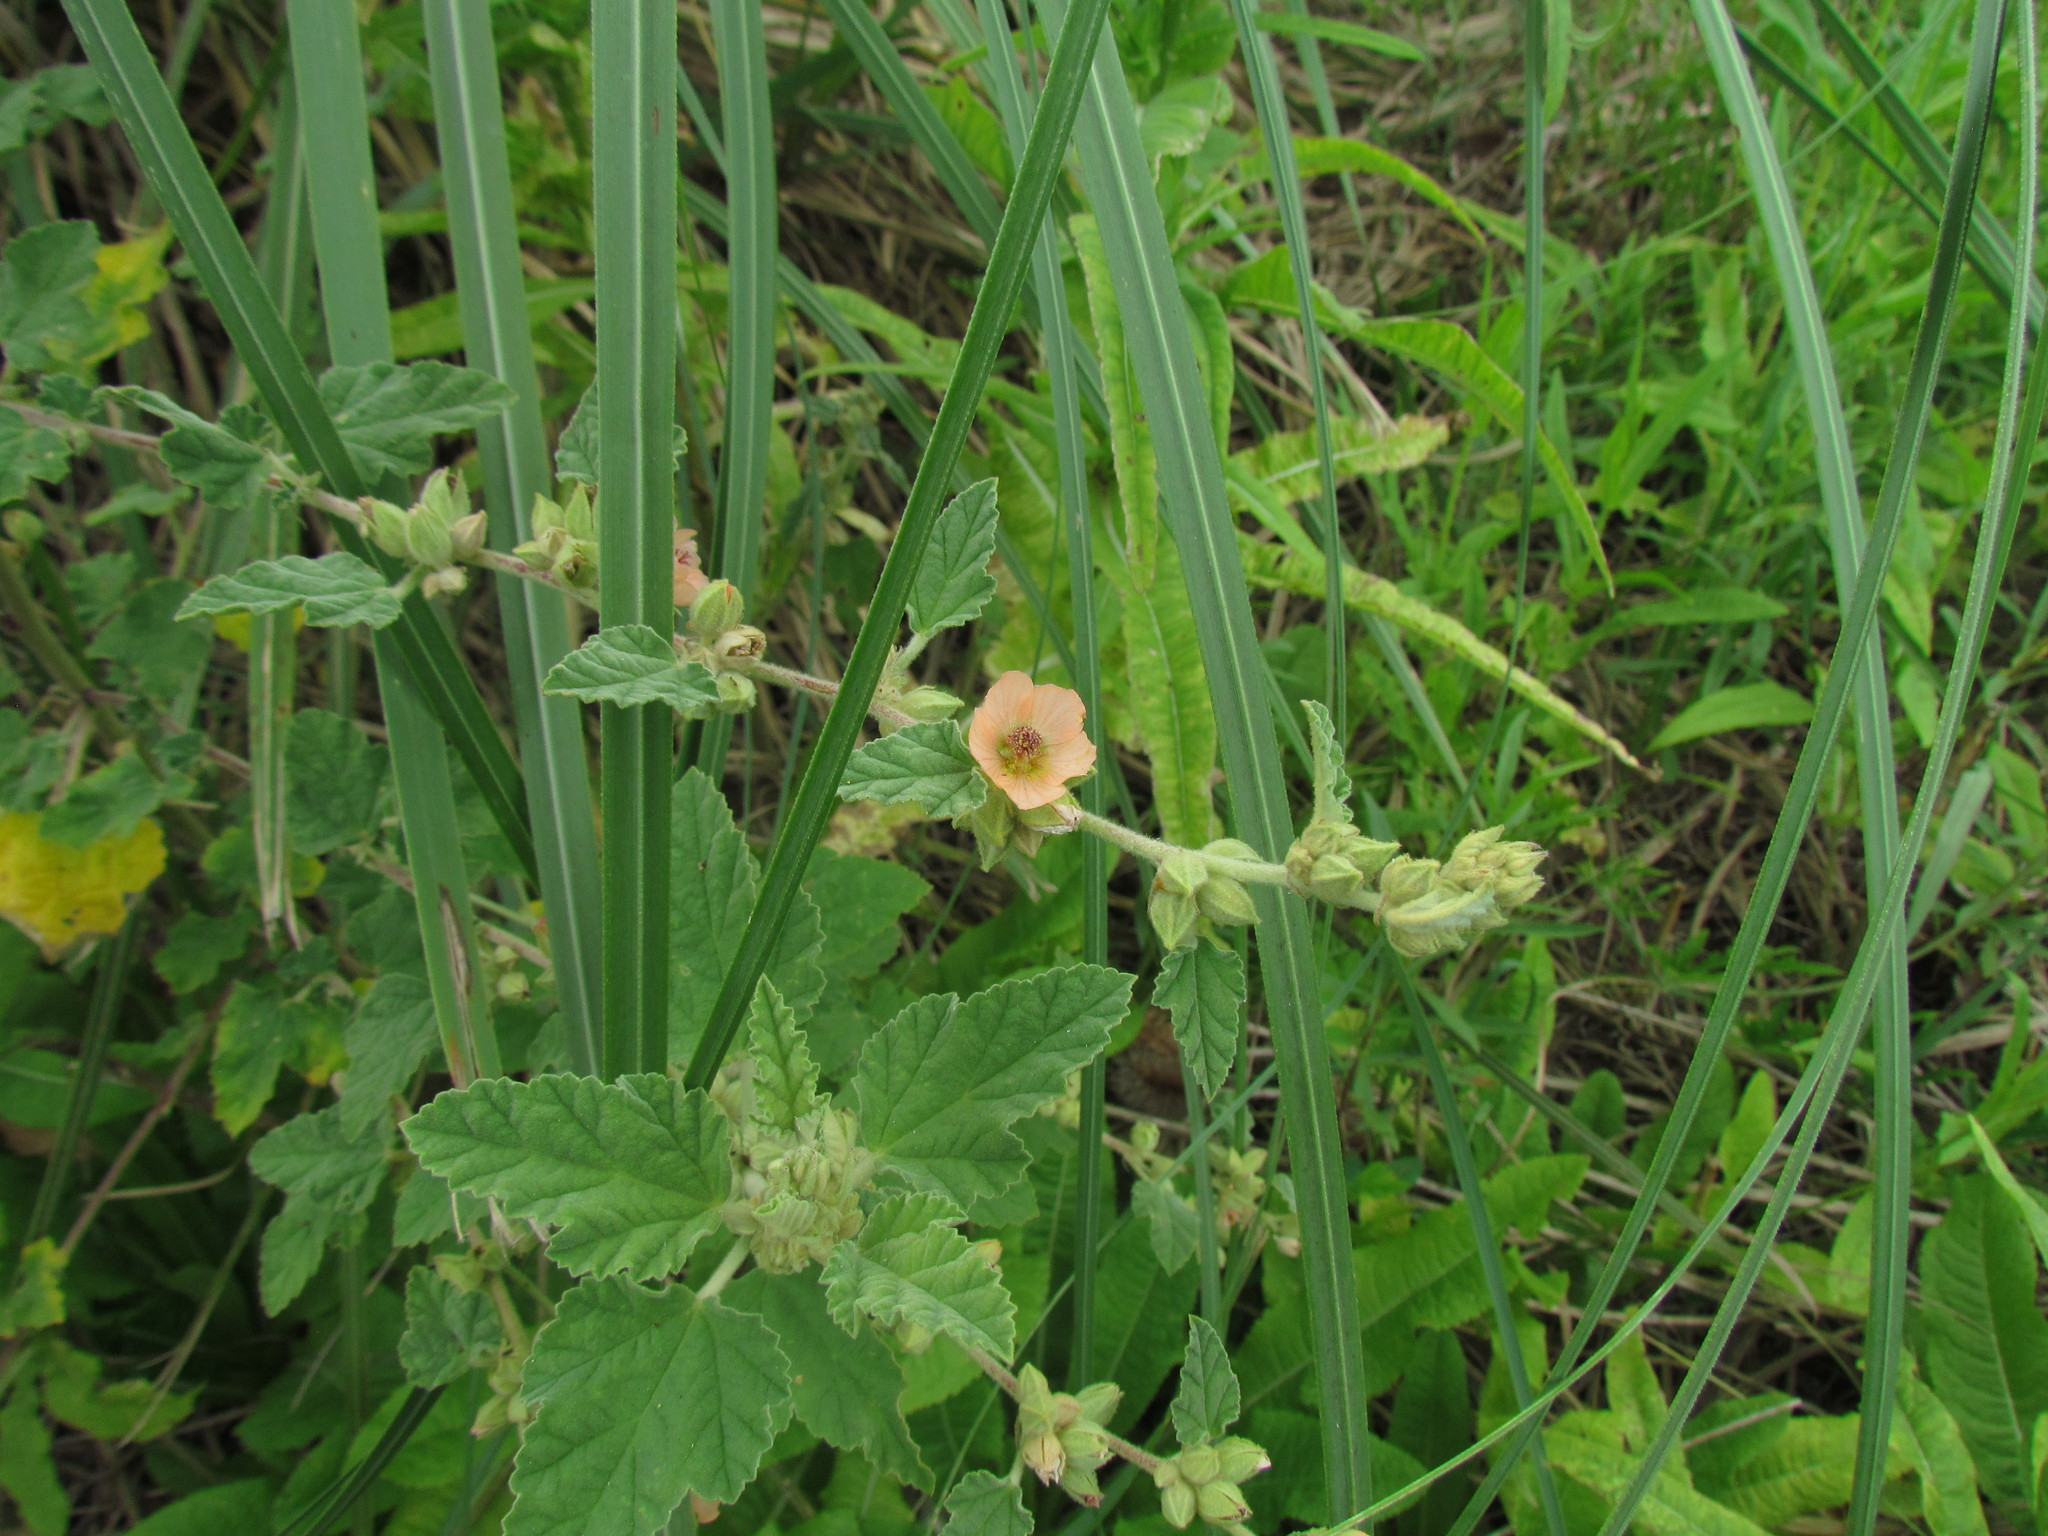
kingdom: Plantae
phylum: Tracheophyta
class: Magnoliopsida
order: Malvales
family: Malvaceae
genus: Sphaeralcea
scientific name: Sphaeralcea bonariensis
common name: Latin globemallow
